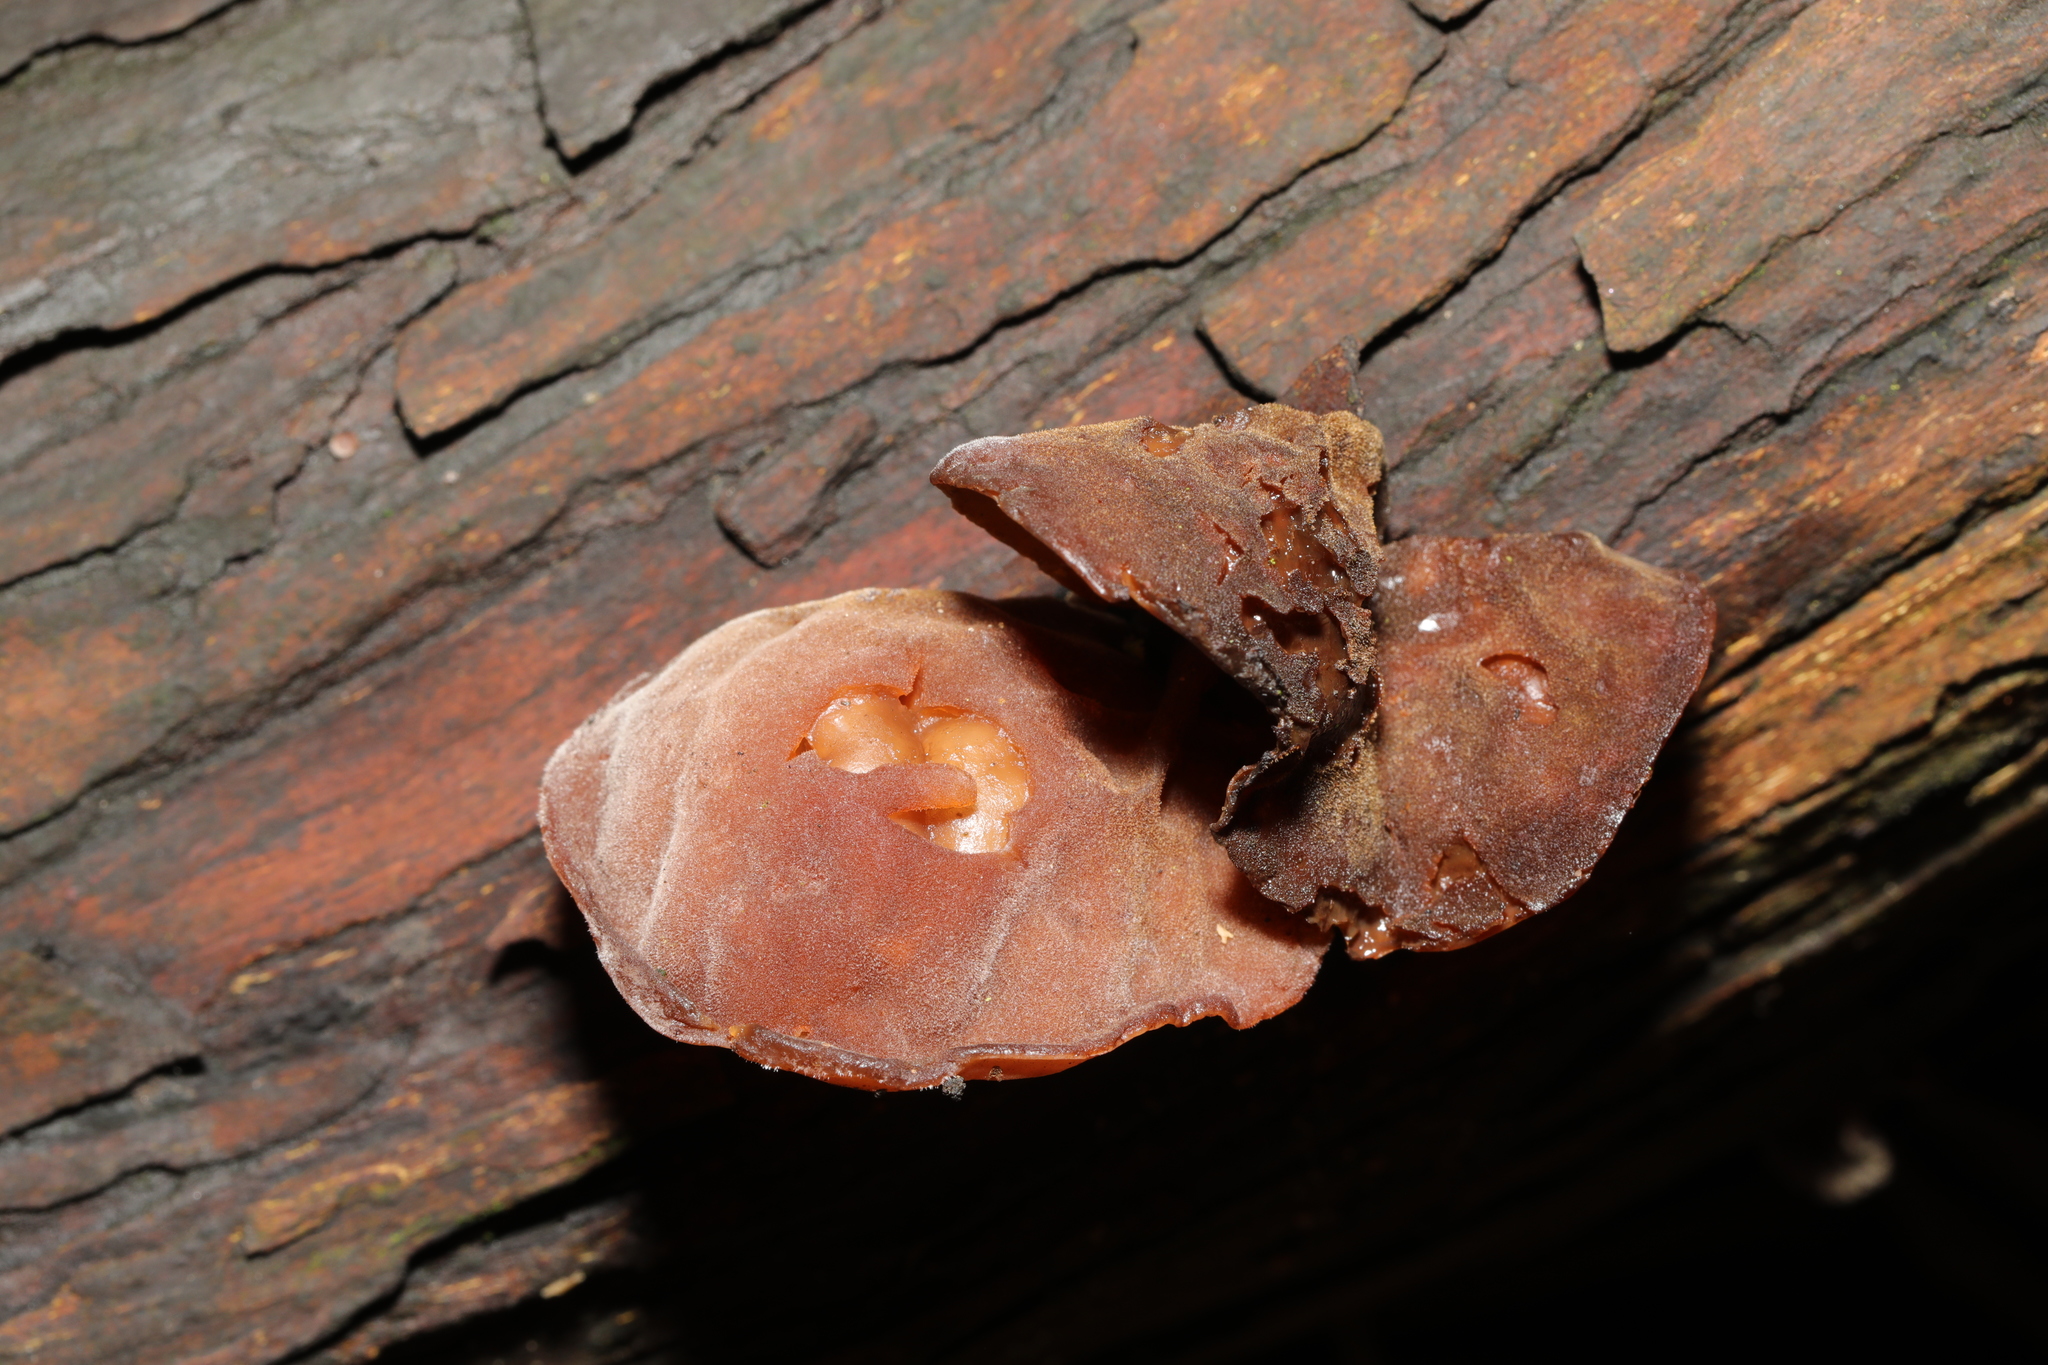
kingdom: Fungi
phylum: Basidiomycota
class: Agaricomycetes
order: Auriculariales
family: Auriculariaceae
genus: Auricularia
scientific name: Auricularia auricula-judae
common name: Jelly ear
